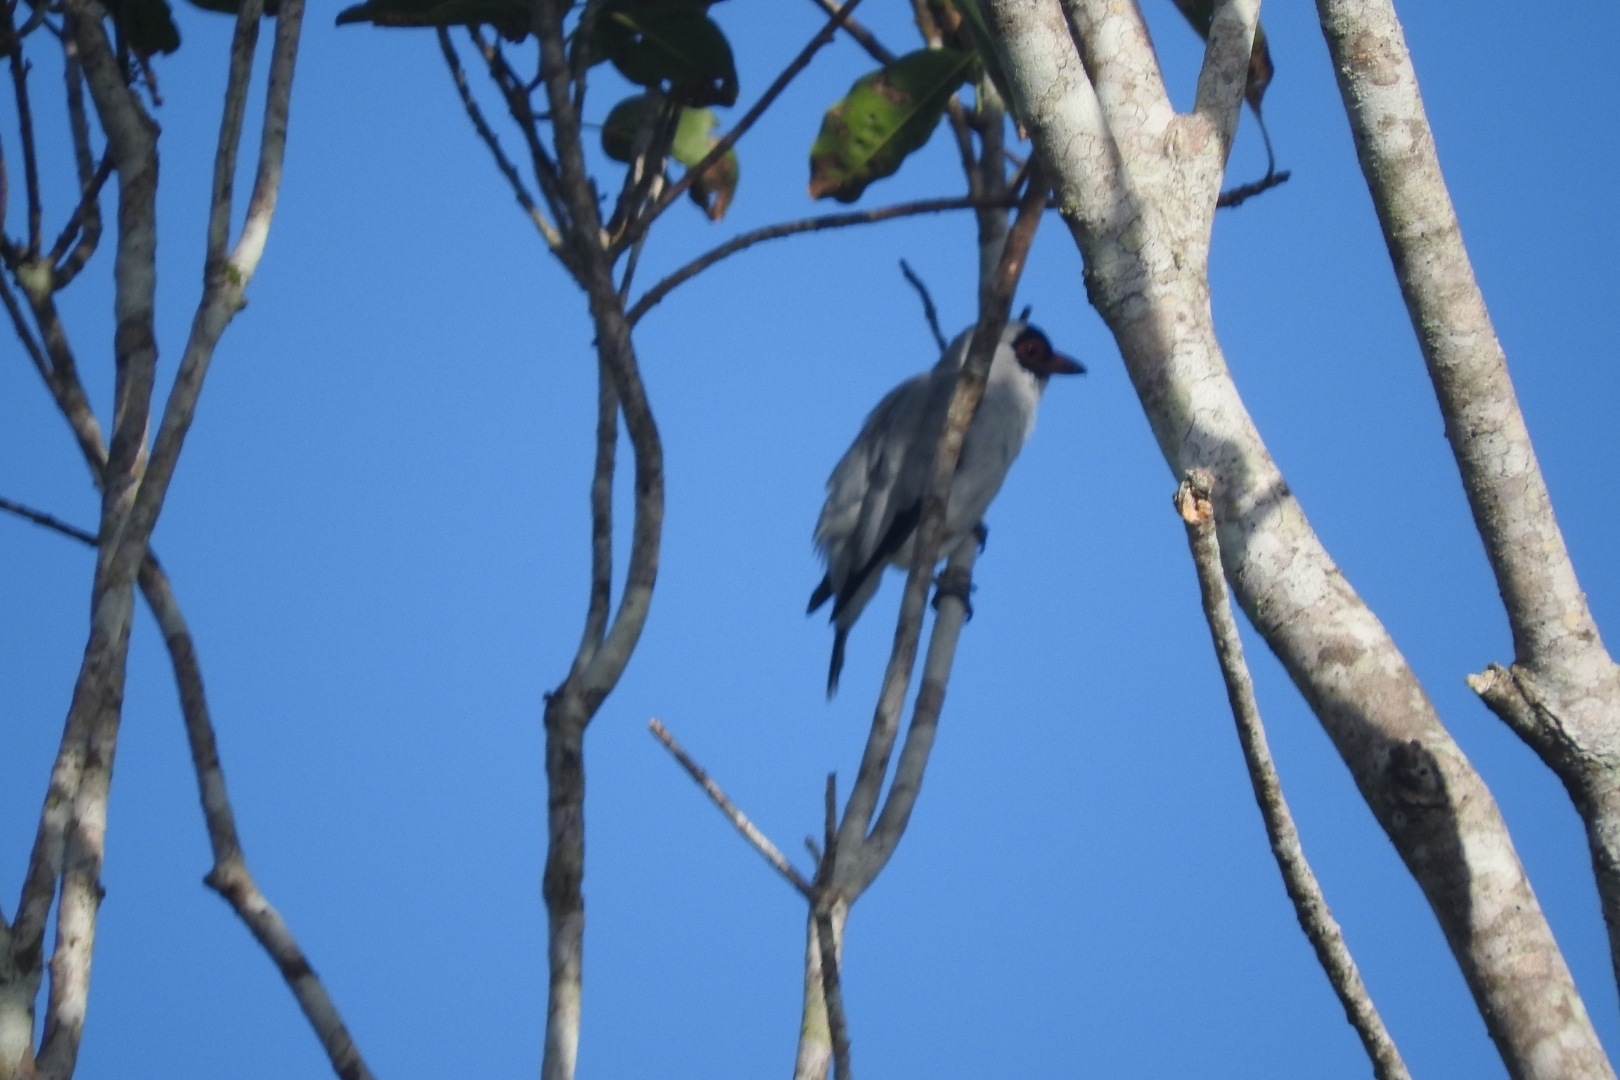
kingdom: Animalia
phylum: Chordata
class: Aves
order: Passeriformes
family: Cotingidae
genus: Tityra
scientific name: Tityra semifasciata
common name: Masked tityra
